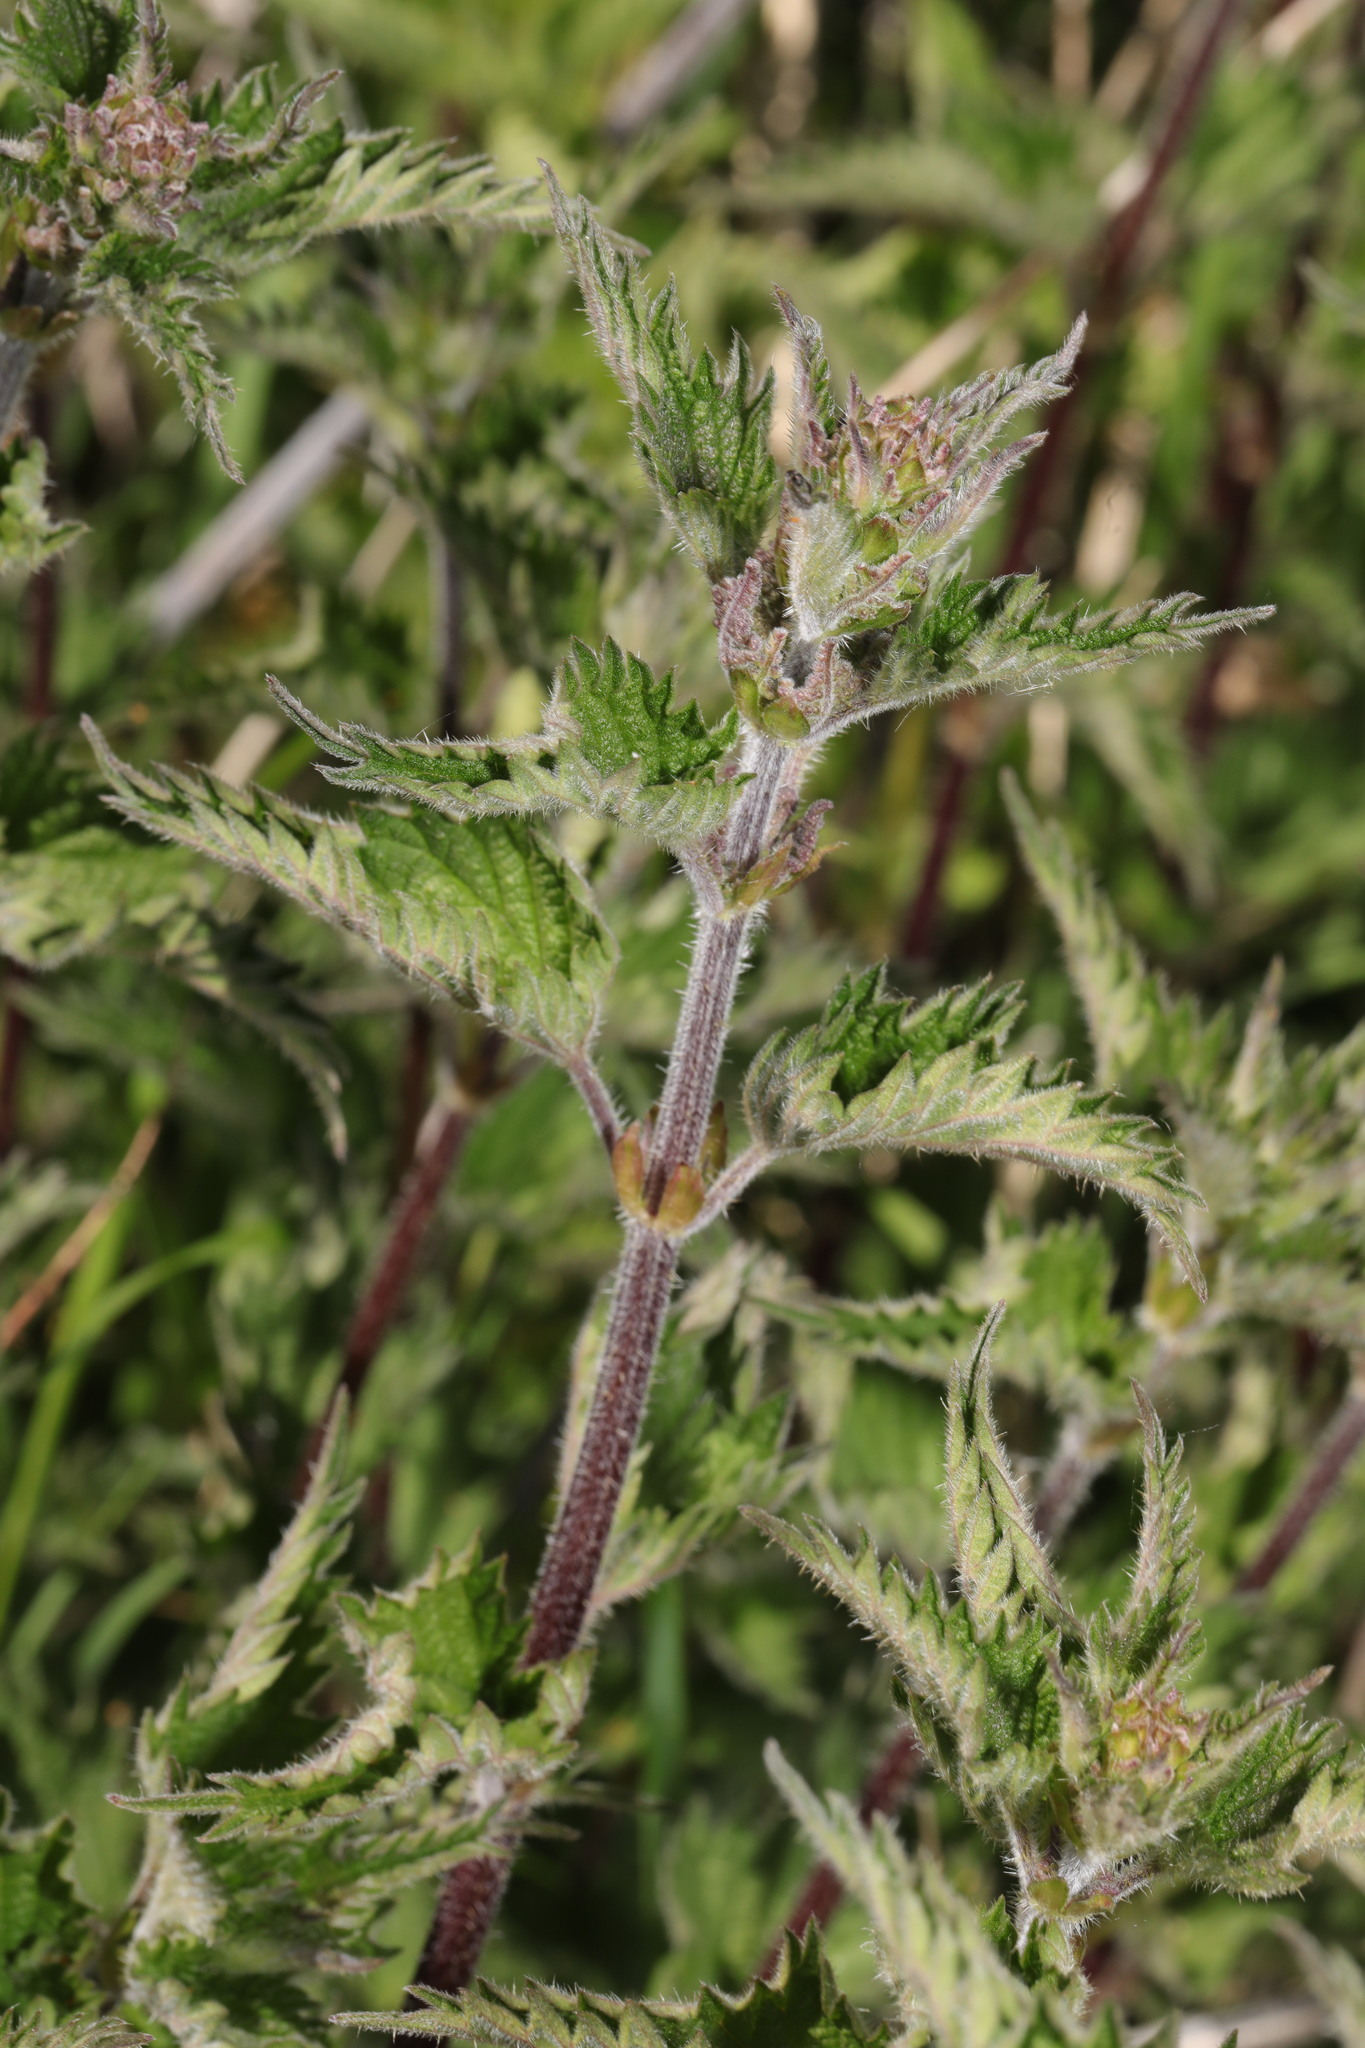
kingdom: Plantae
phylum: Tracheophyta
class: Magnoliopsida
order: Rosales
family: Urticaceae
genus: Urtica
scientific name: Urtica dioica
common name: Common nettle
